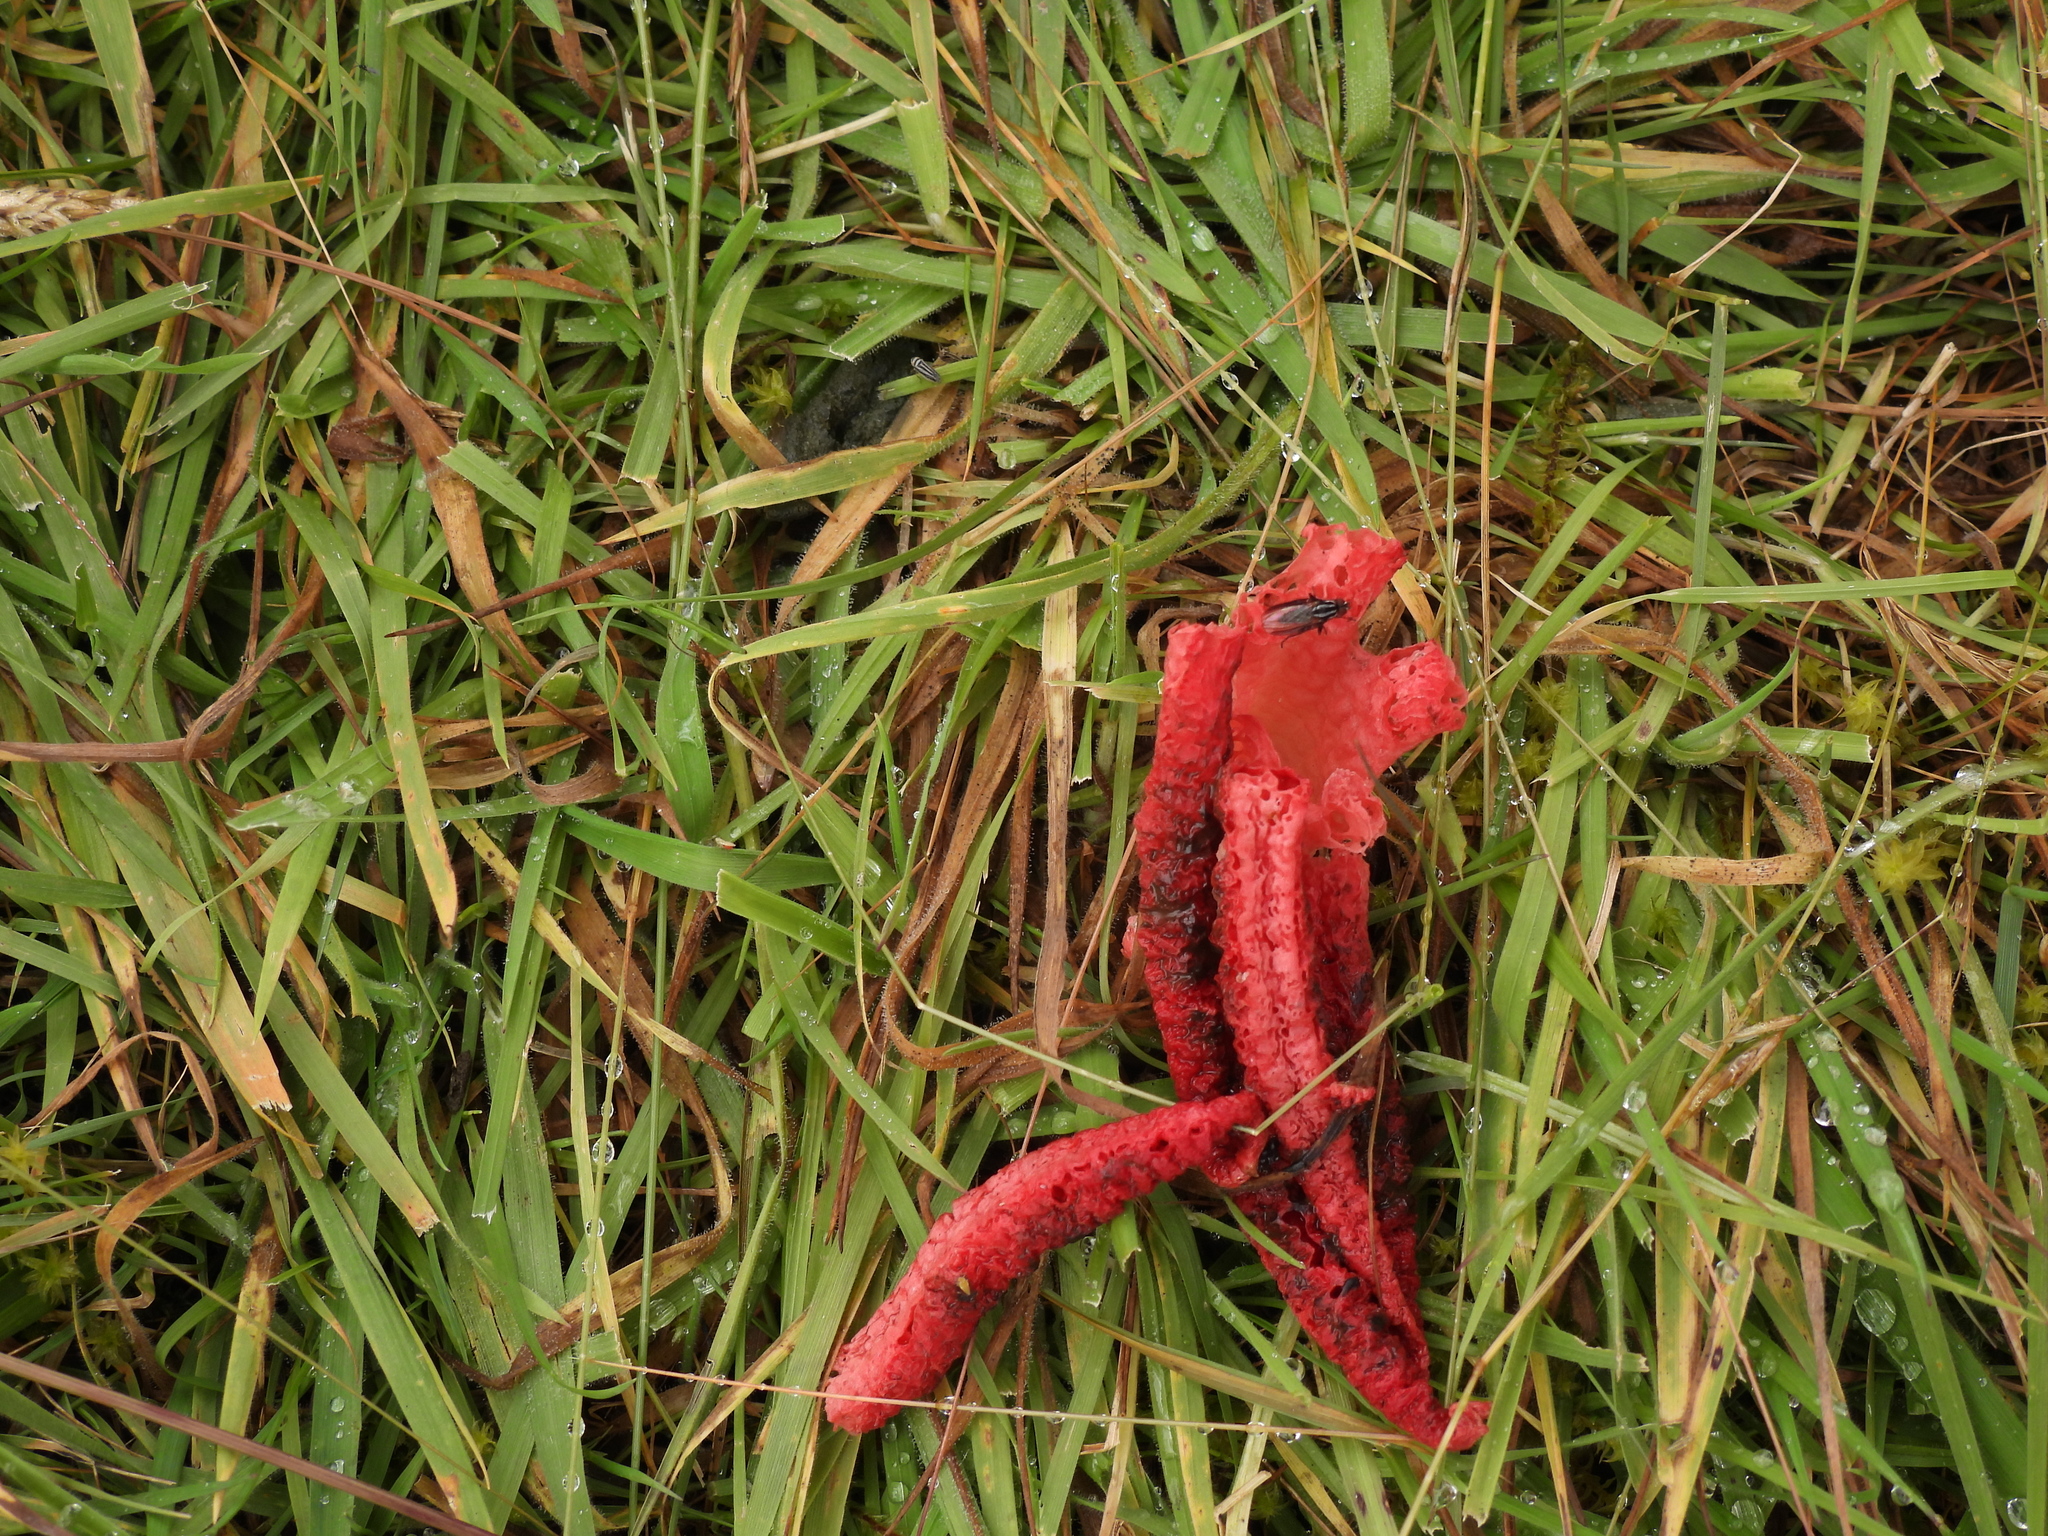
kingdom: Fungi
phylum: Basidiomycota
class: Agaricomycetes
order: Phallales
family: Phallaceae
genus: Clathrus
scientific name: Clathrus archeri
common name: Devil's fingers
